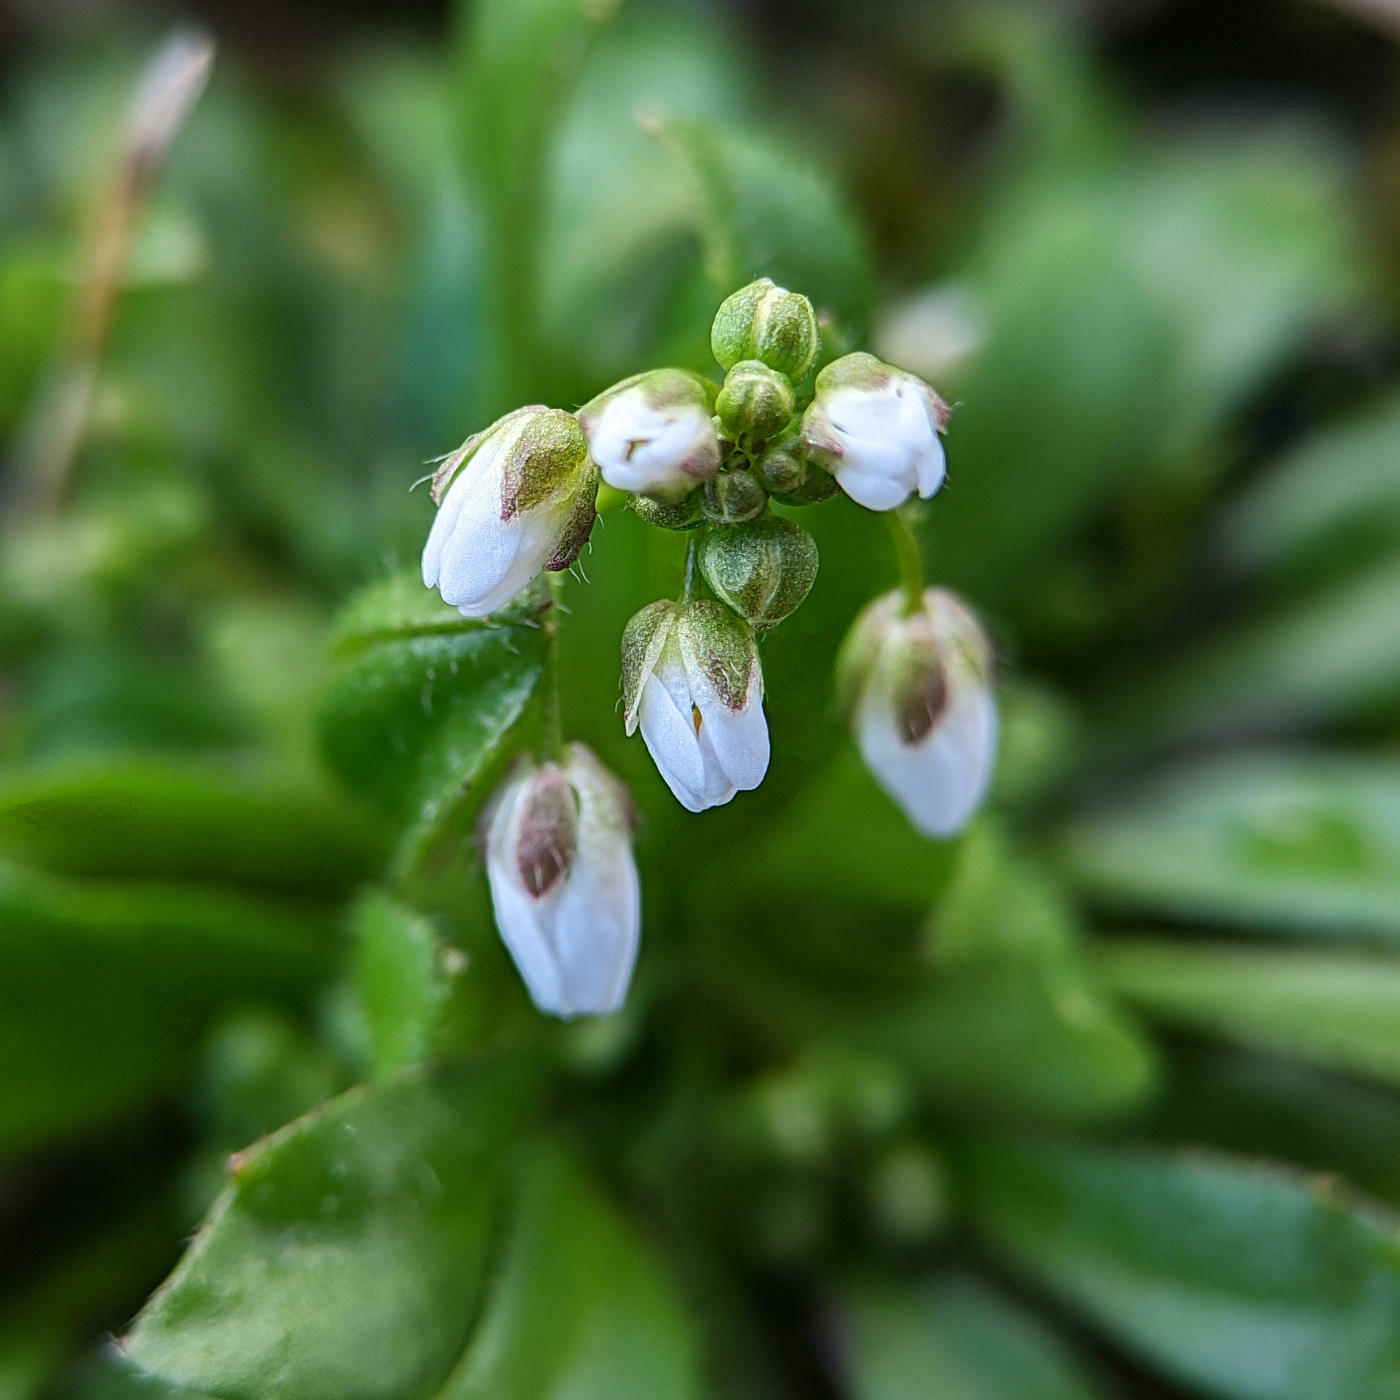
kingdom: Plantae
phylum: Tracheophyta
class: Magnoliopsida
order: Brassicales
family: Brassicaceae
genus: Draba
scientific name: Draba verna
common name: Spring draba
